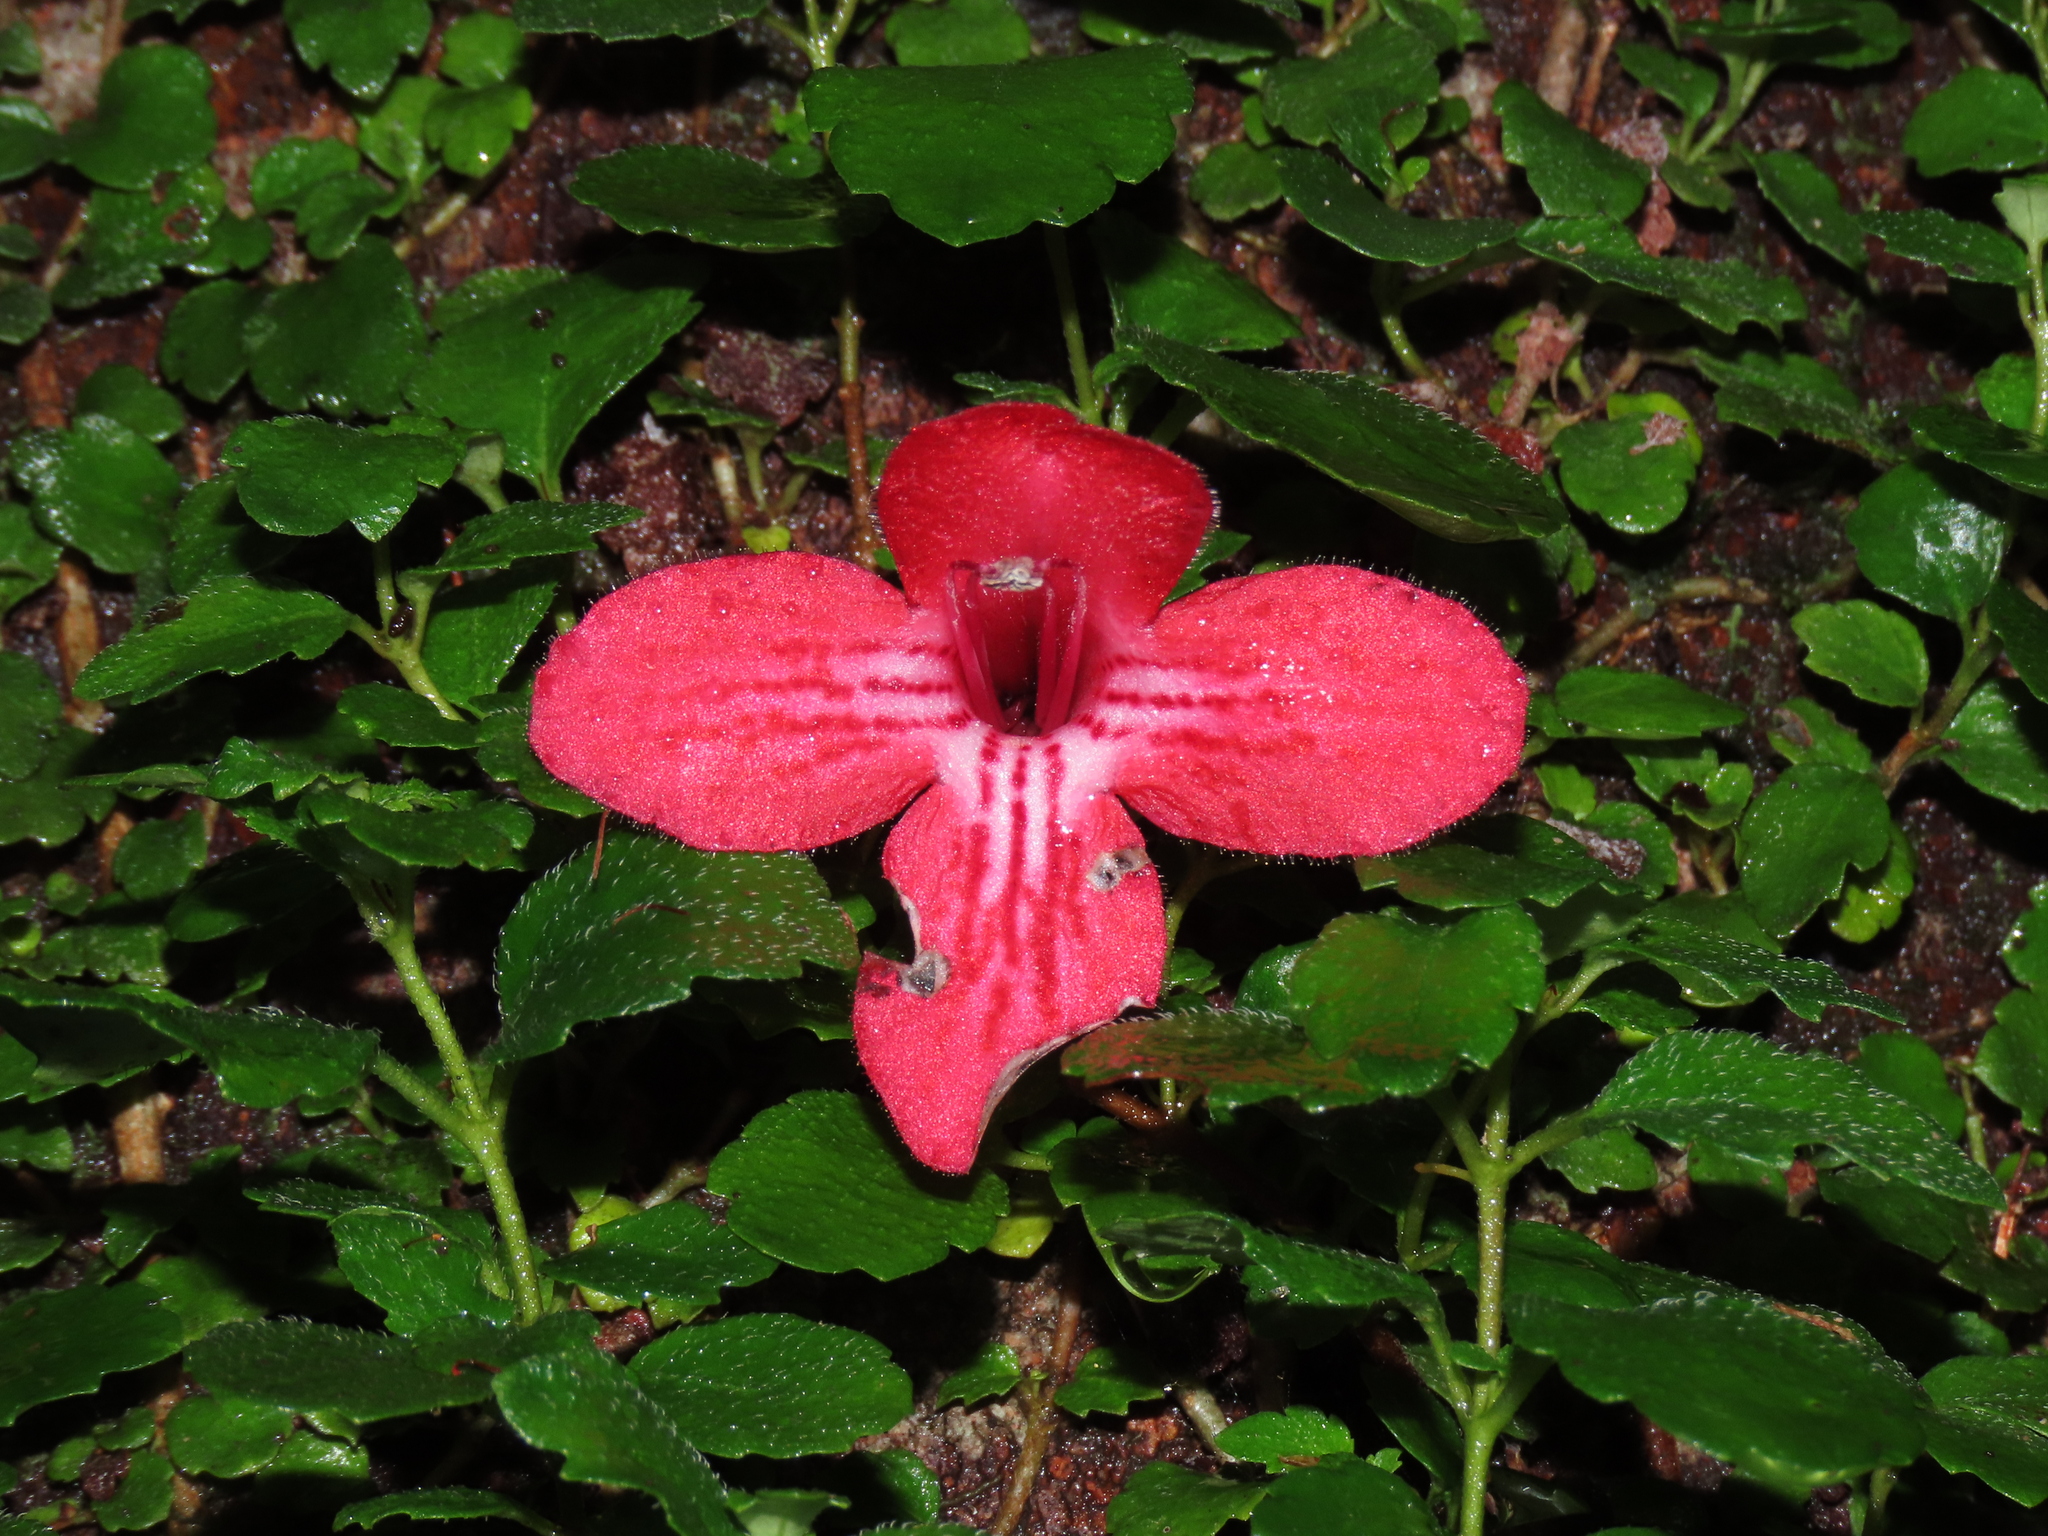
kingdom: Plantae
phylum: Tracheophyta
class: Magnoliopsida
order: Lamiales
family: Gesneriaceae
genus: Asteranthera
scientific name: Asteranthera ovata
